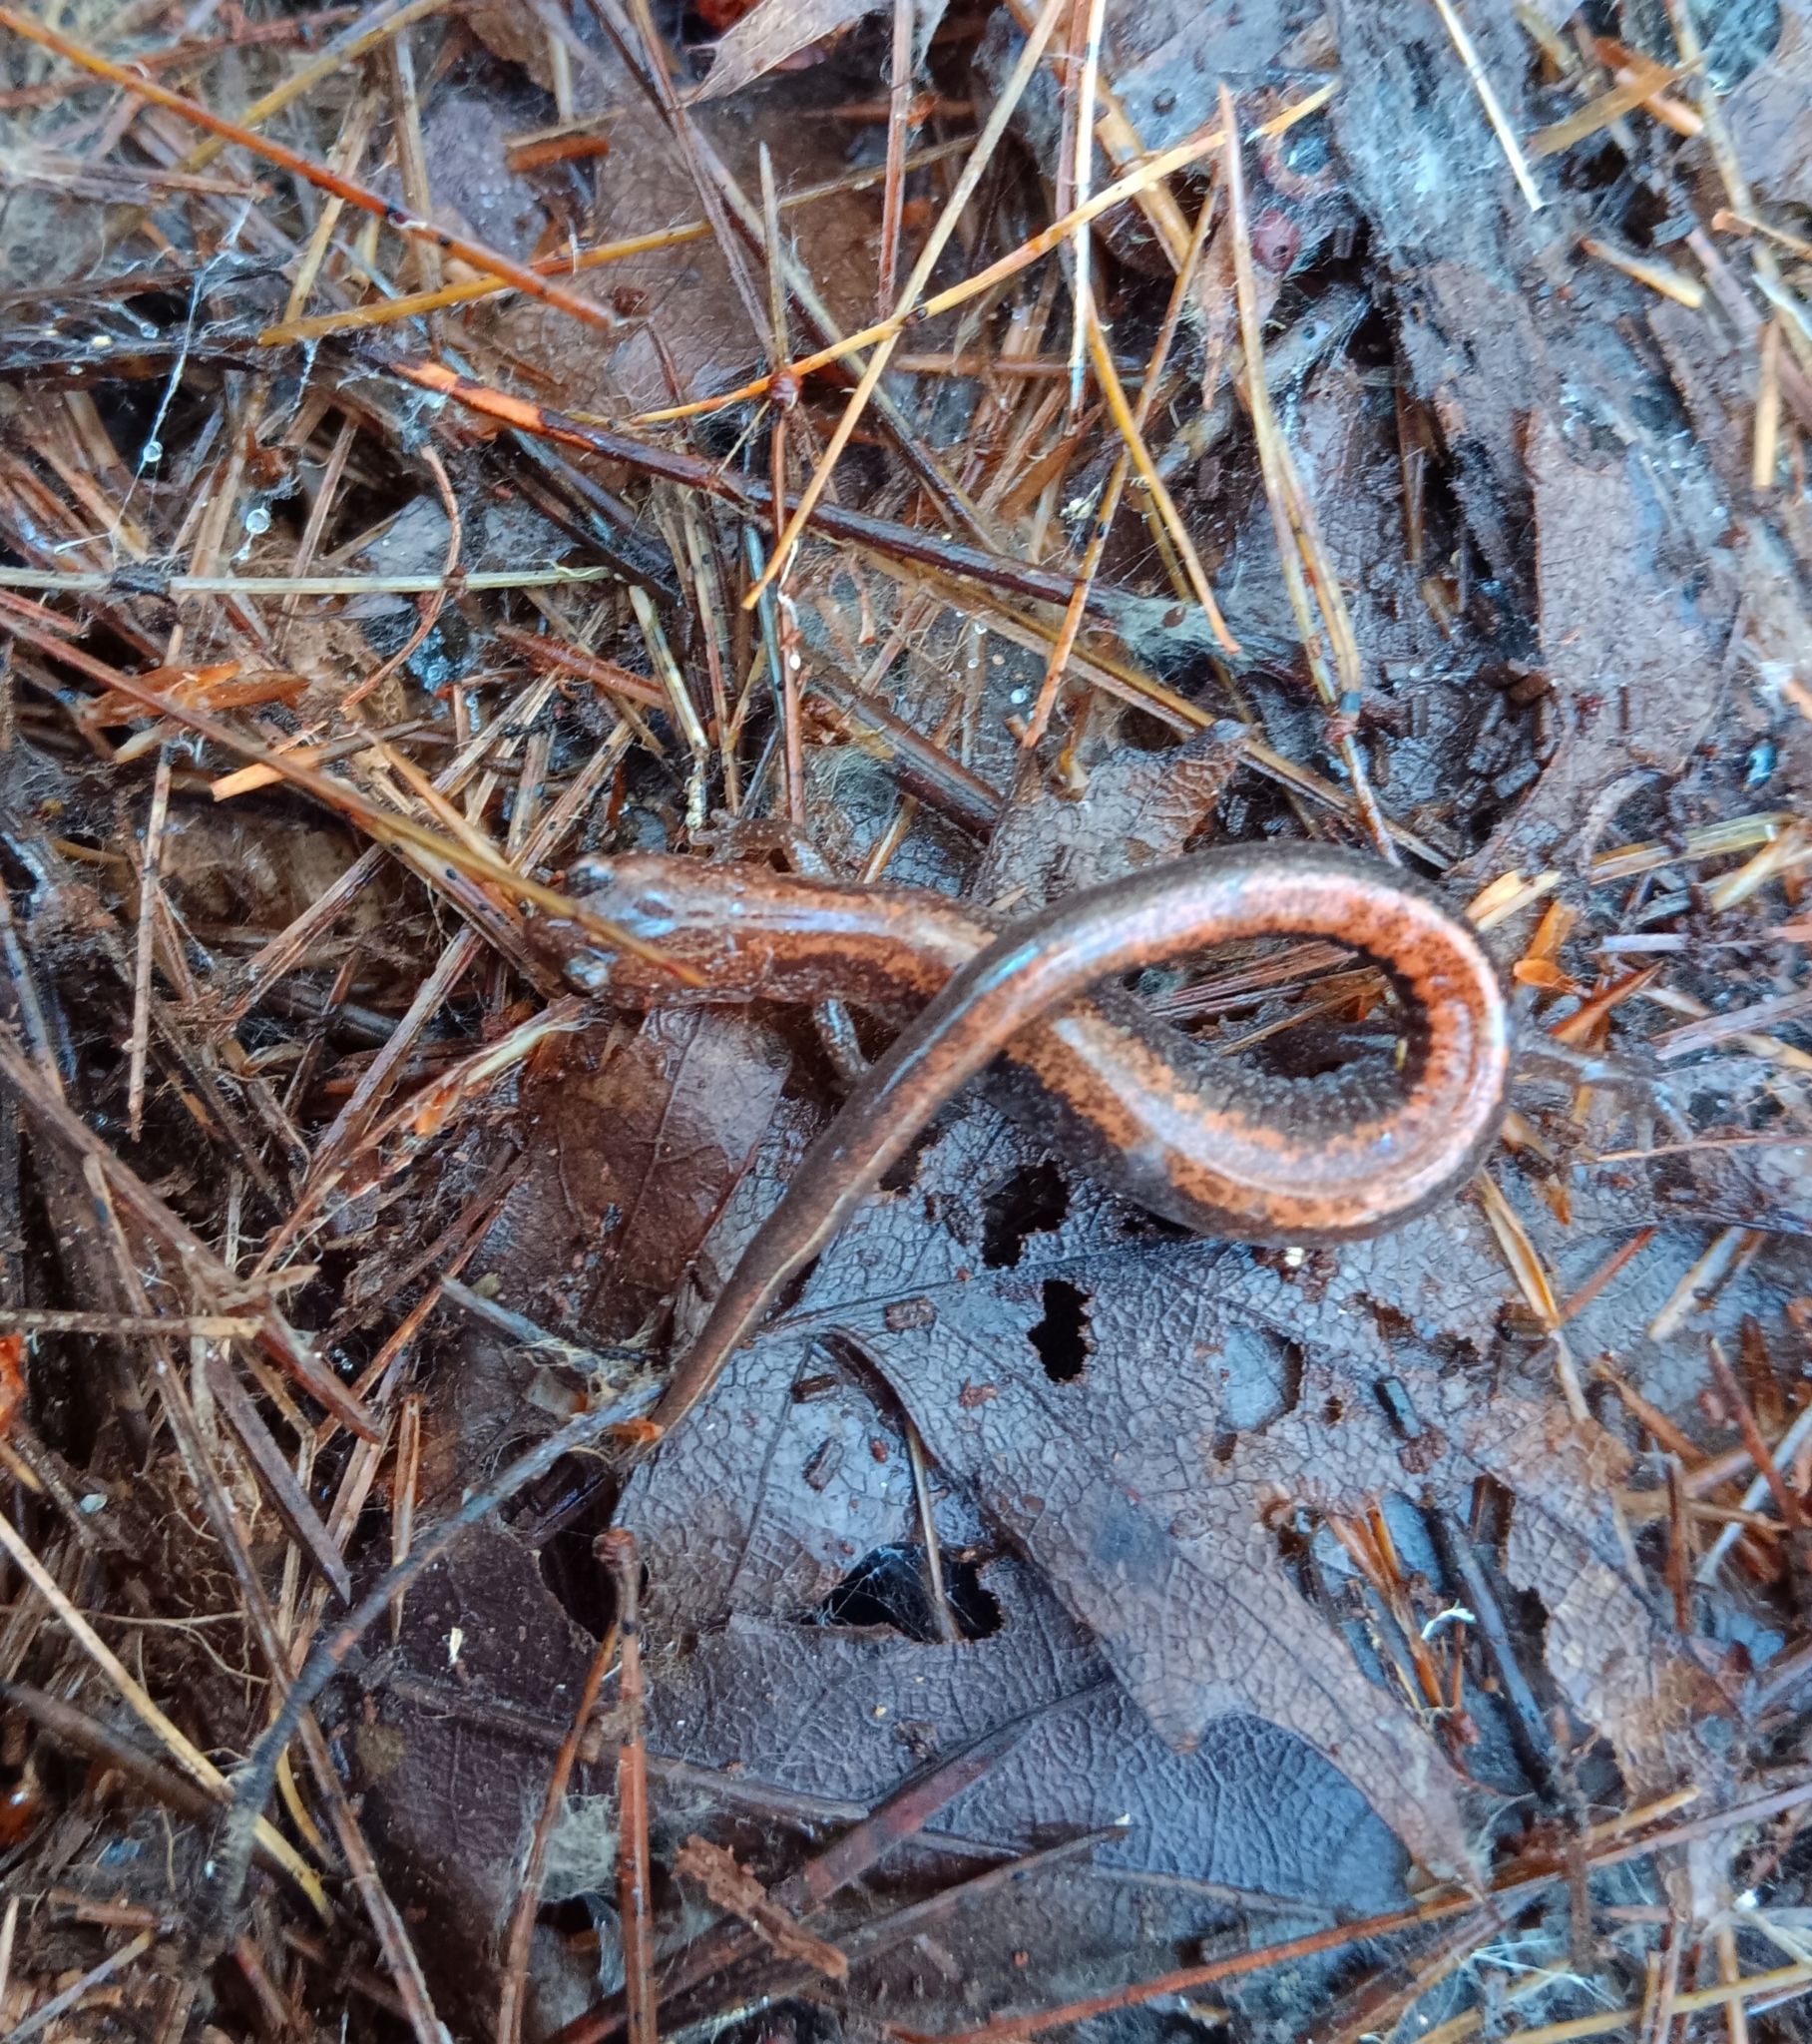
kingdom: Animalia
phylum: Chordata
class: Amphibia
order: Caudata
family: Plethodontidae
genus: Plethodon
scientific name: Plethodon cinereus
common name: Redback salamander
